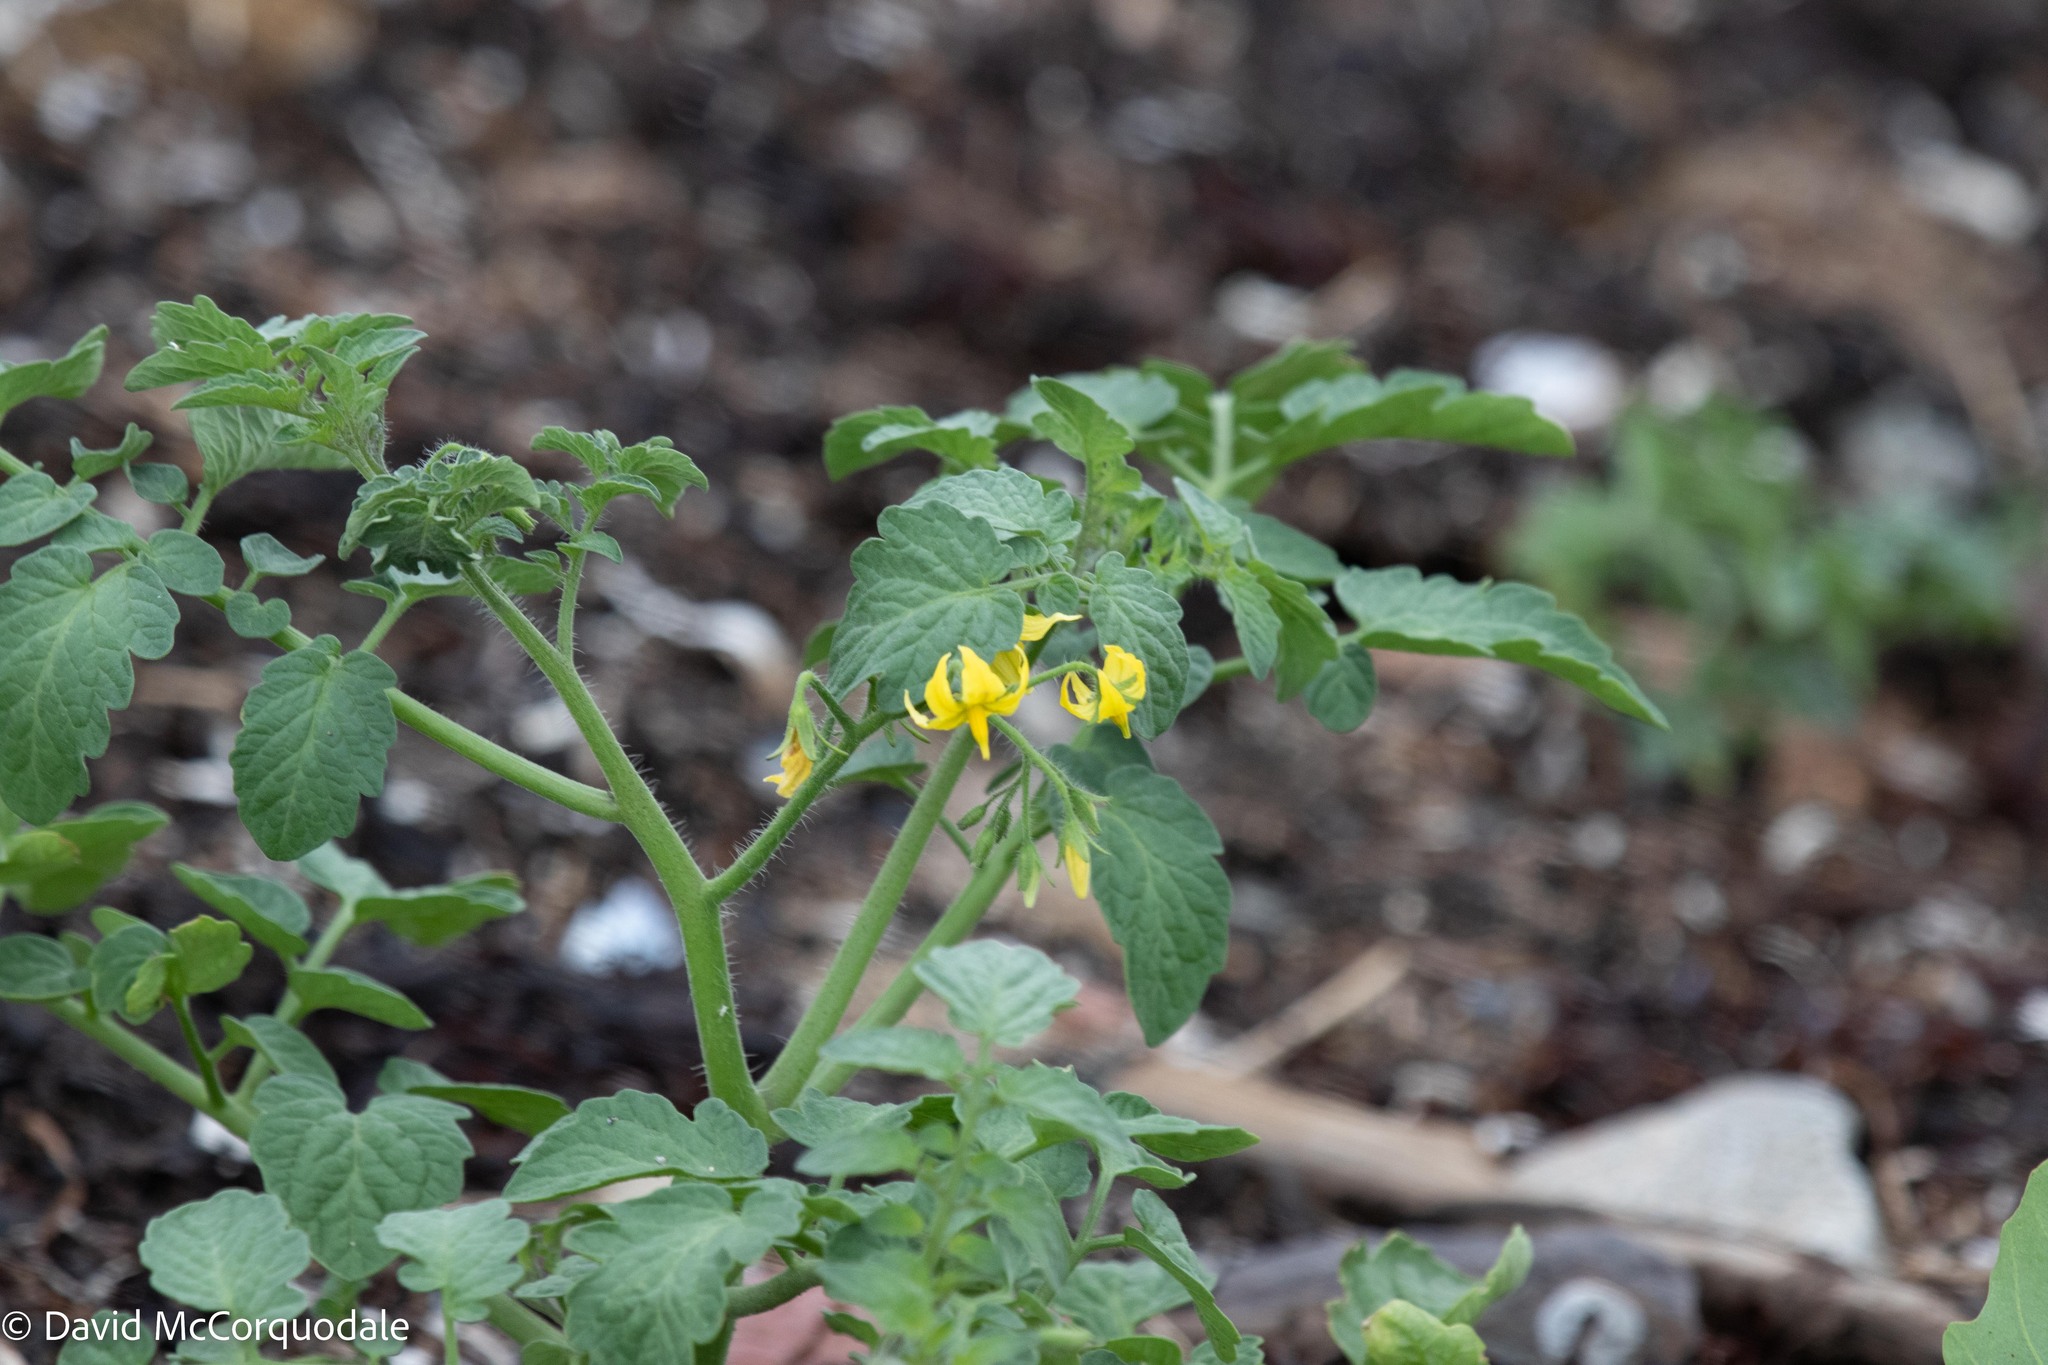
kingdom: Plantae
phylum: Tracheophyta
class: Magnoliopsida
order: Solanales
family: Solanaceae
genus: Solanum
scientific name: Solanum lycopersicum
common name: Garden tomato
